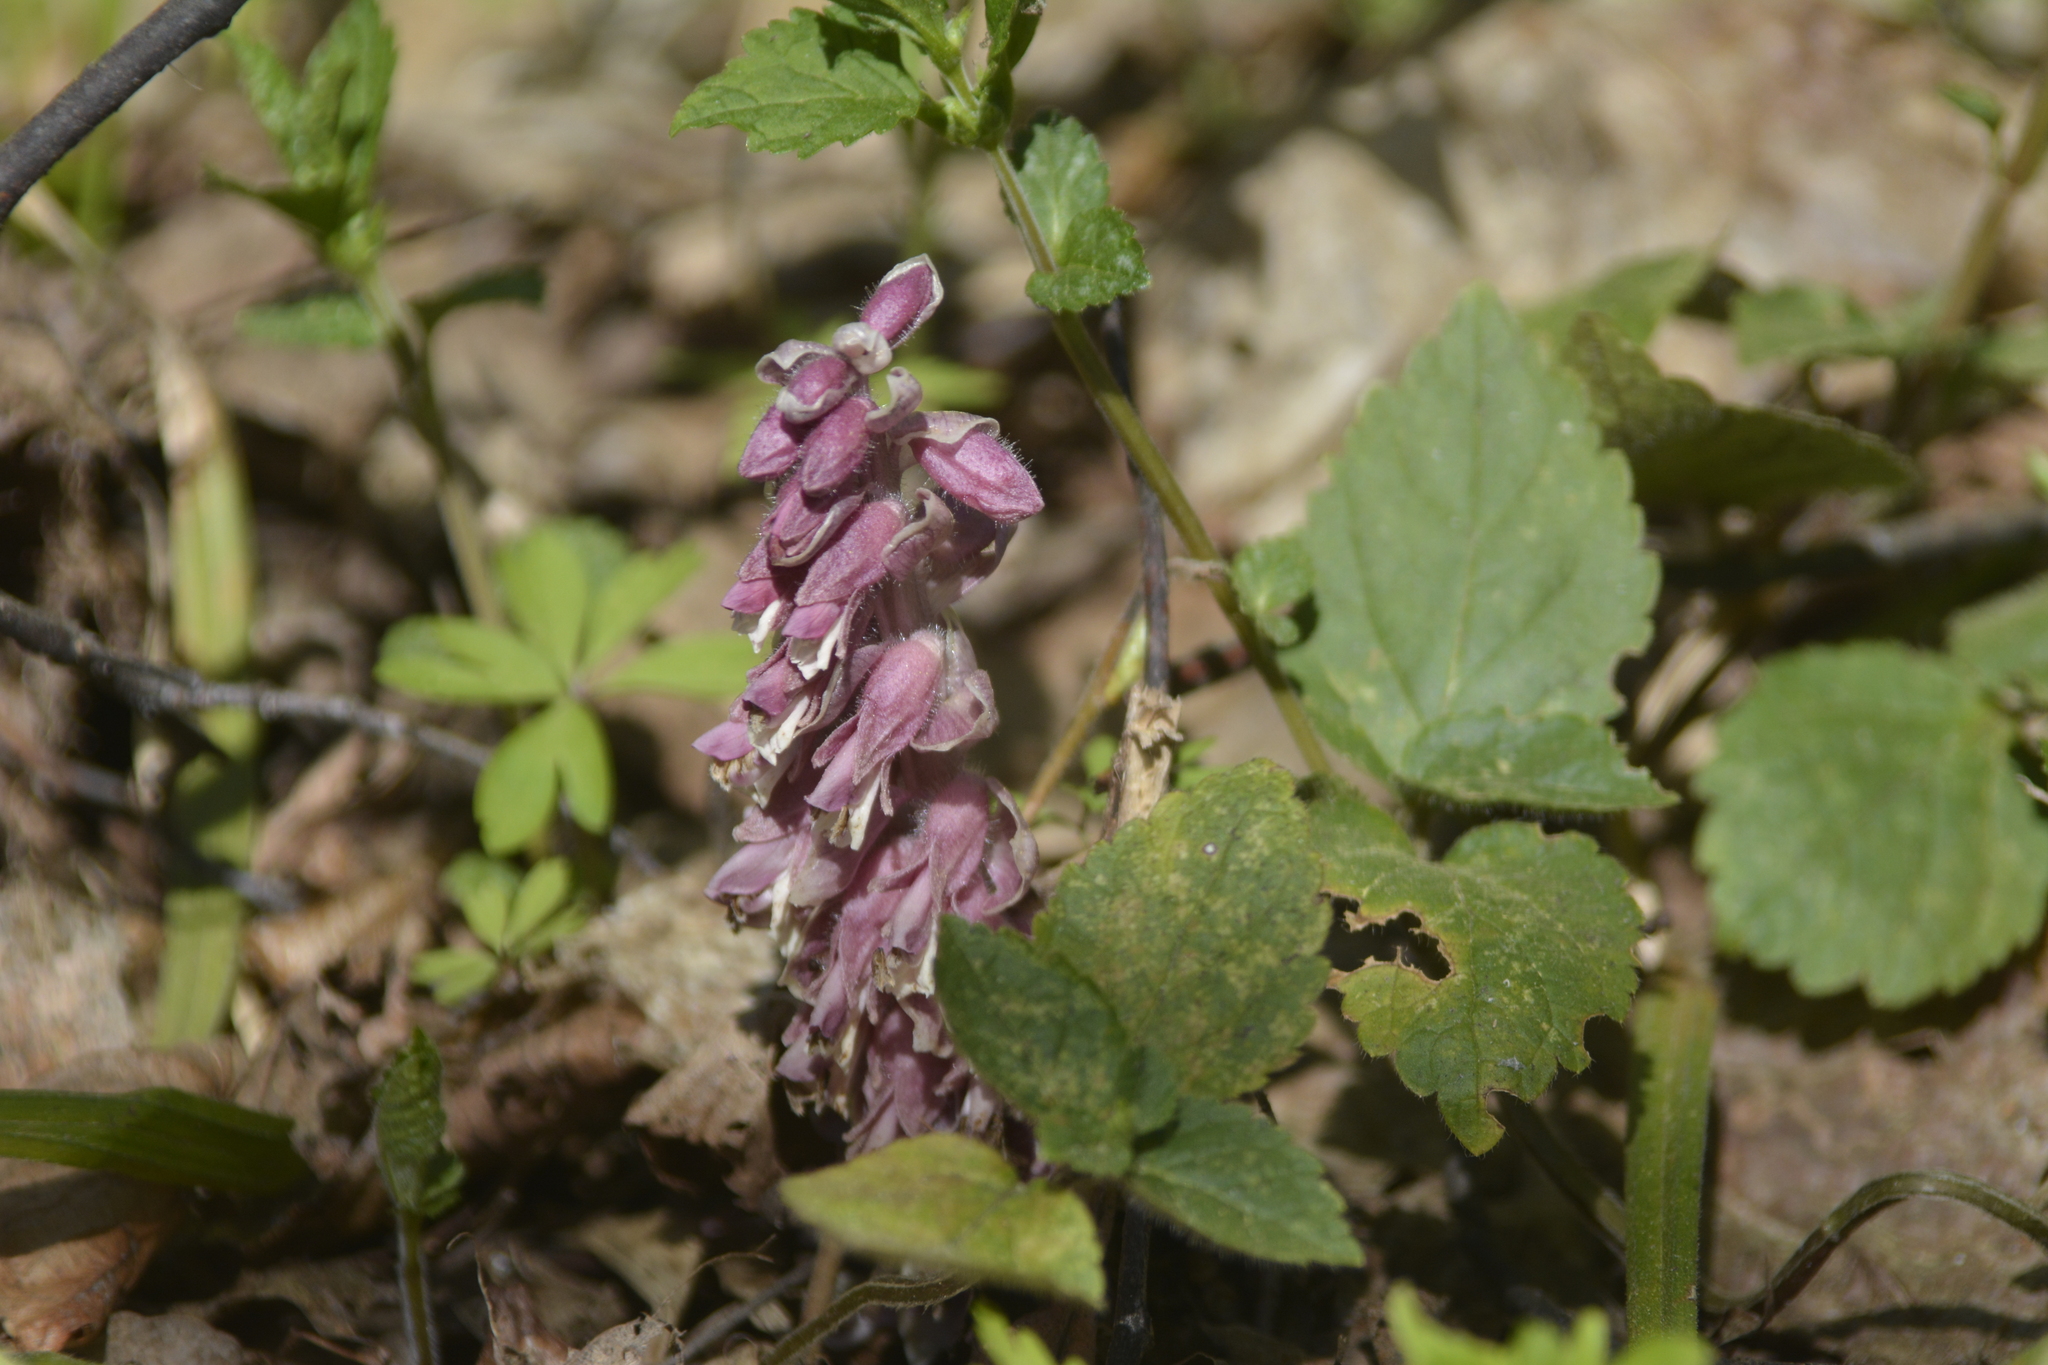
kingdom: Plantae
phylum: Tracheophyta
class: Magnoliopsida
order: Lamiales
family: Orobanchaceae
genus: Lathraea
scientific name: Lathraea squamaria
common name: Toothwort
